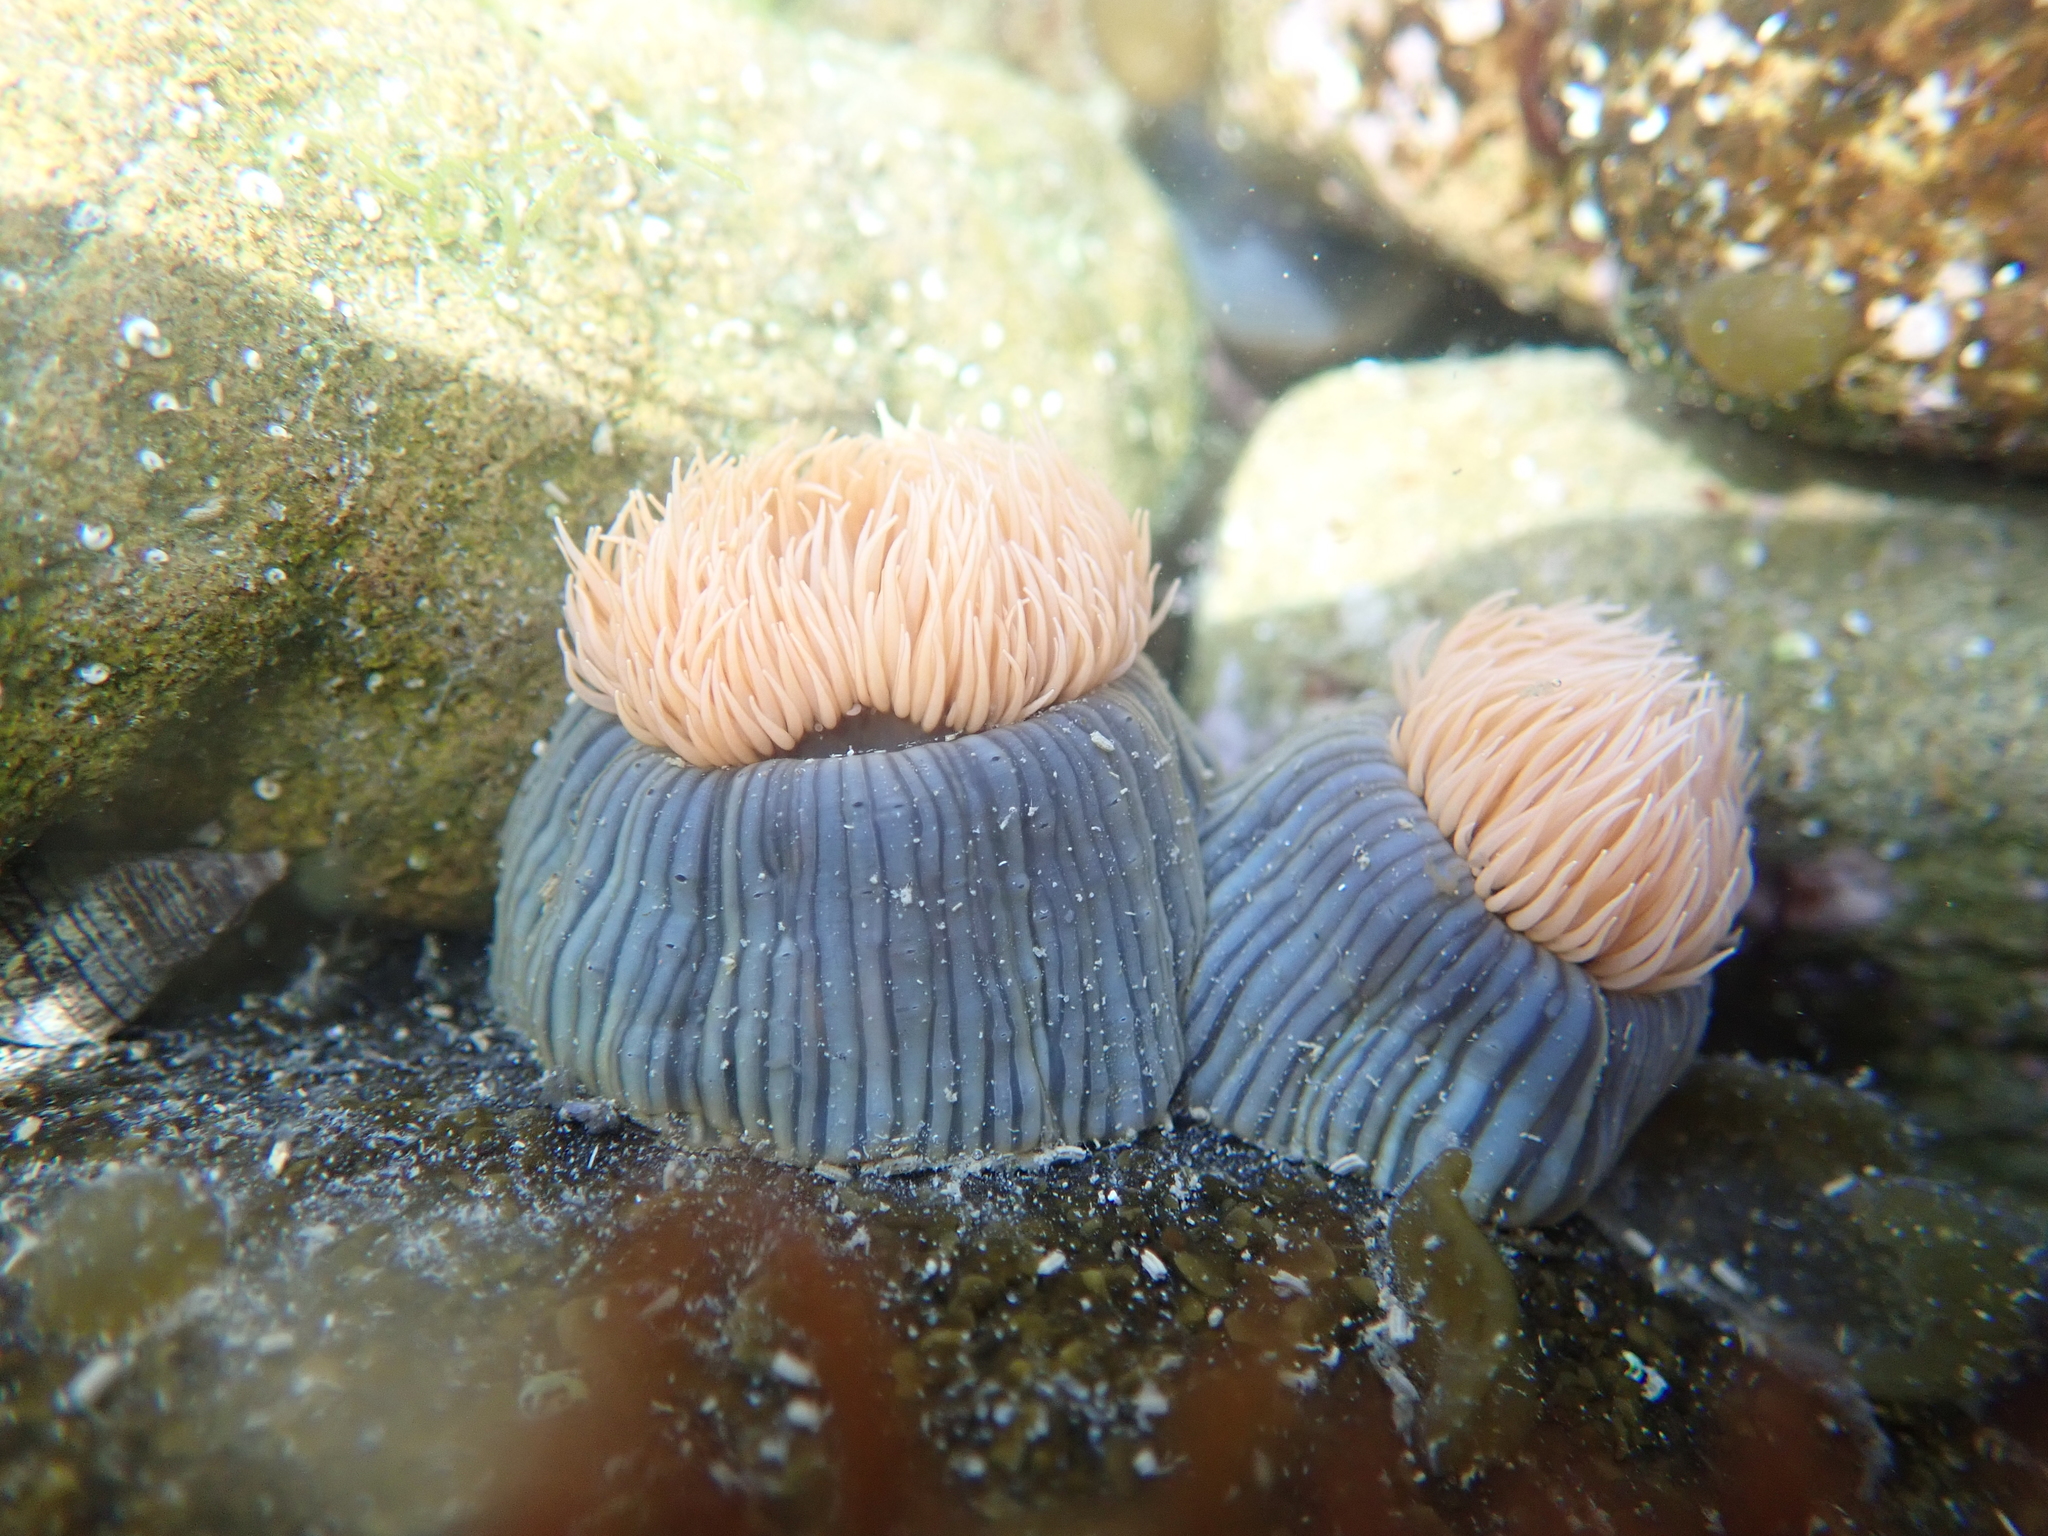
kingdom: Animalia
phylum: Cnidaria
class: Anthozoa
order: Actiniaria
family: Diadumenidae
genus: Diadumene
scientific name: Diadumene neozelanica
